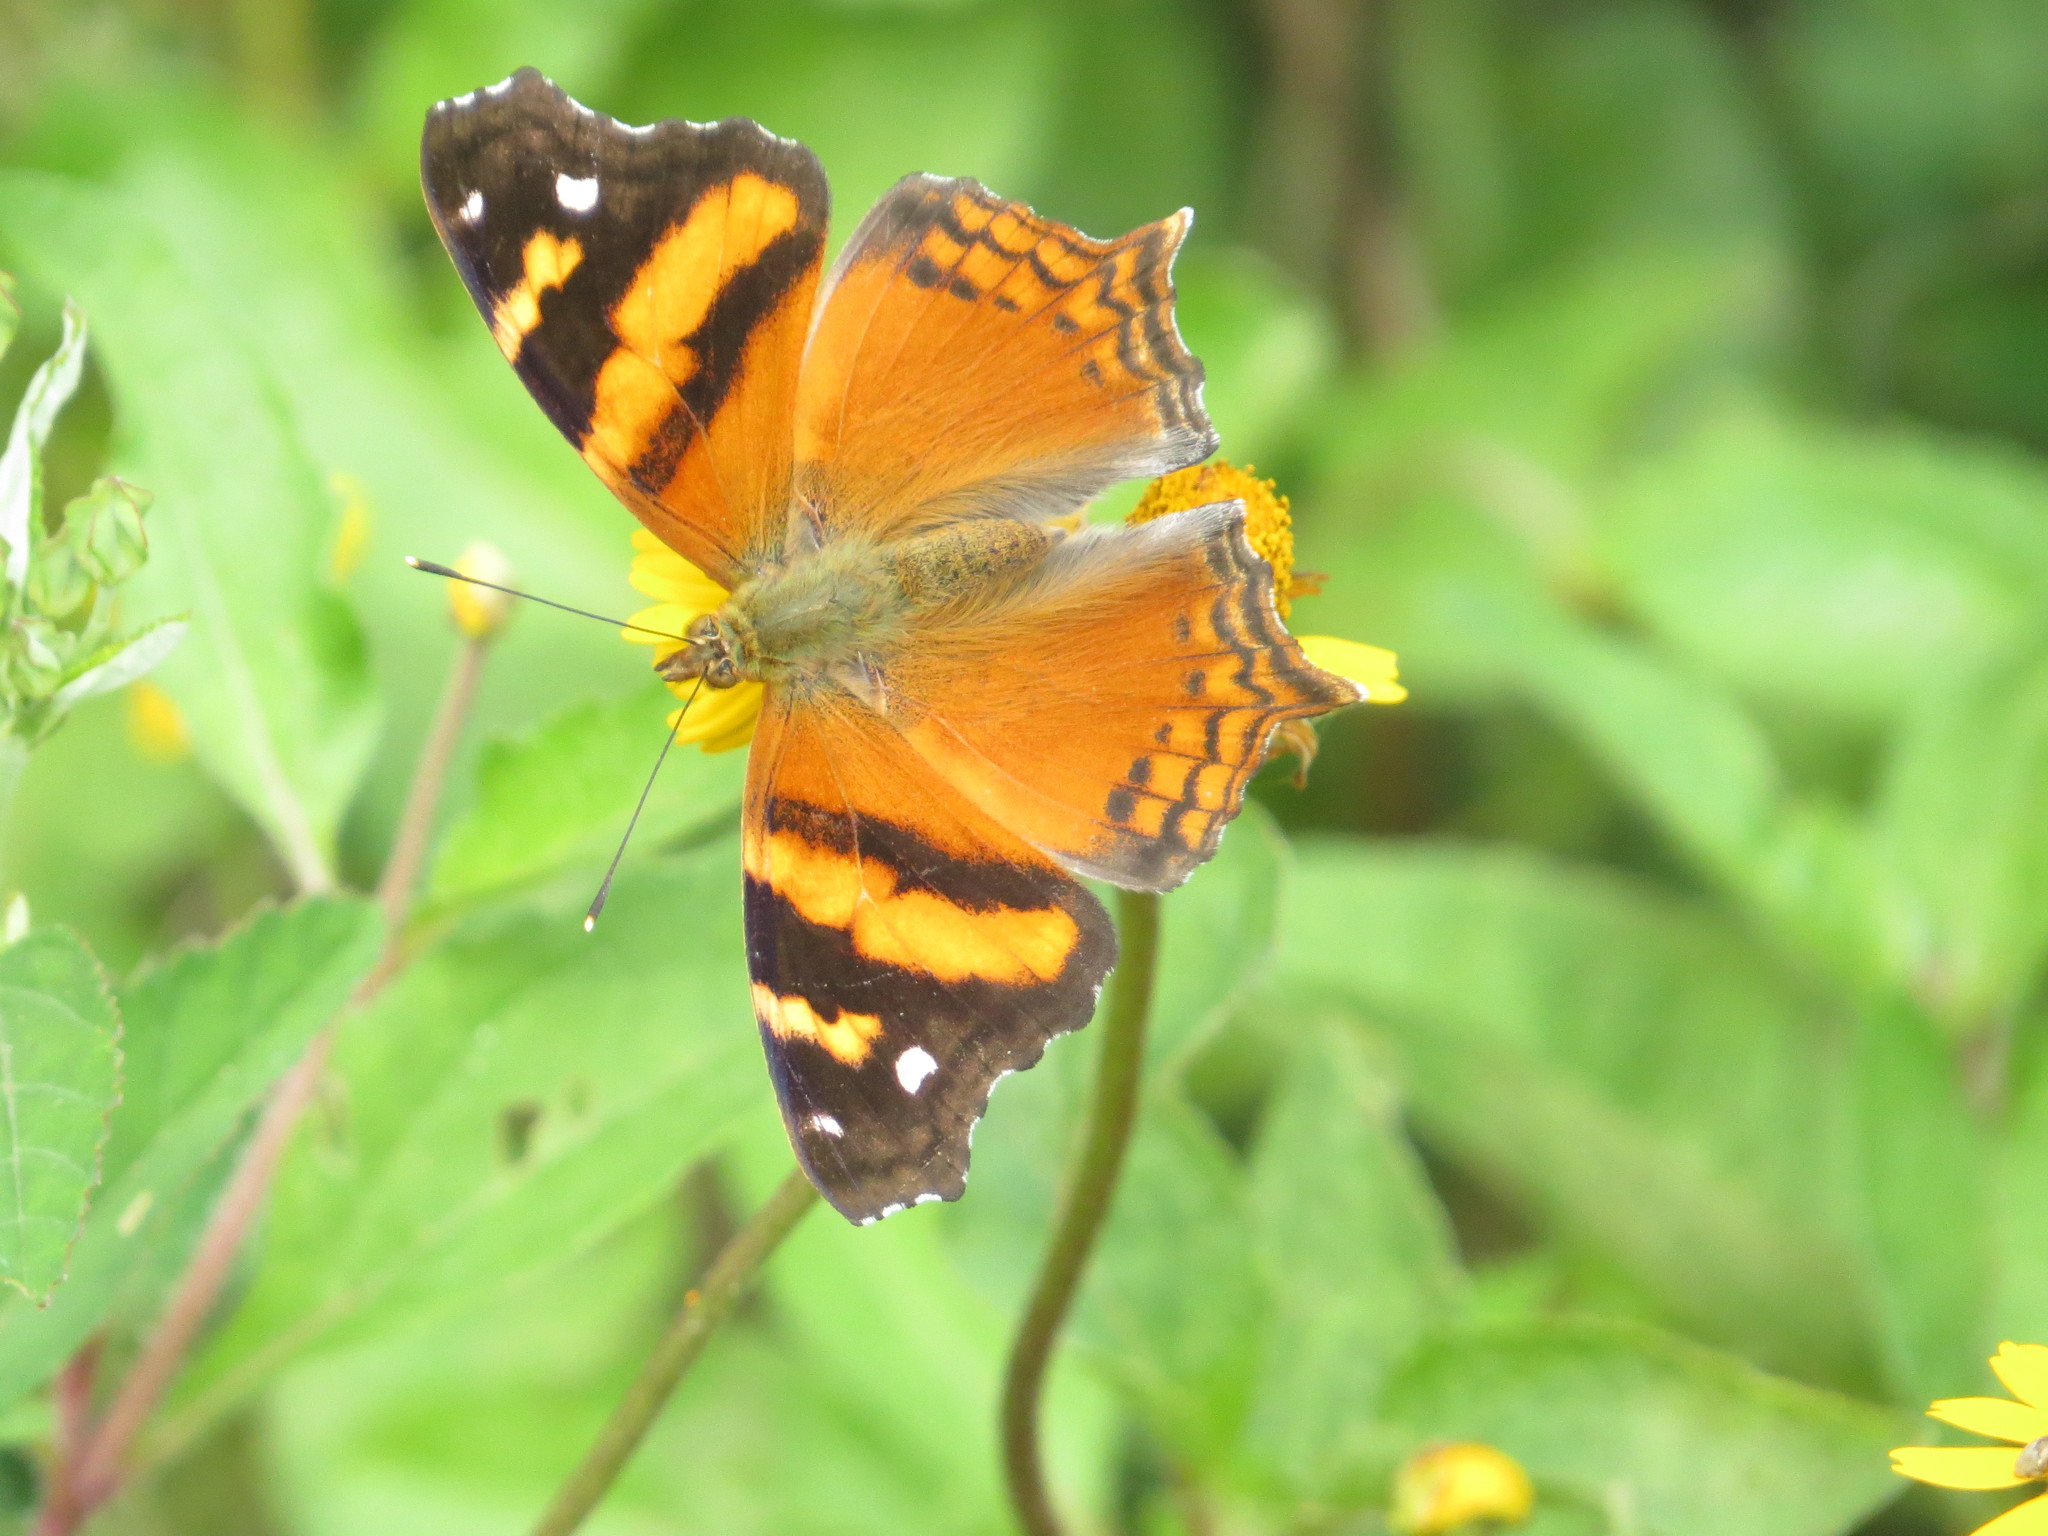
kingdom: Animalia
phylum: Arthropoda
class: Insecta
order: Lepidoptera
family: Nymphalidae
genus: Hypanartia
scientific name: Hypanartia bella
